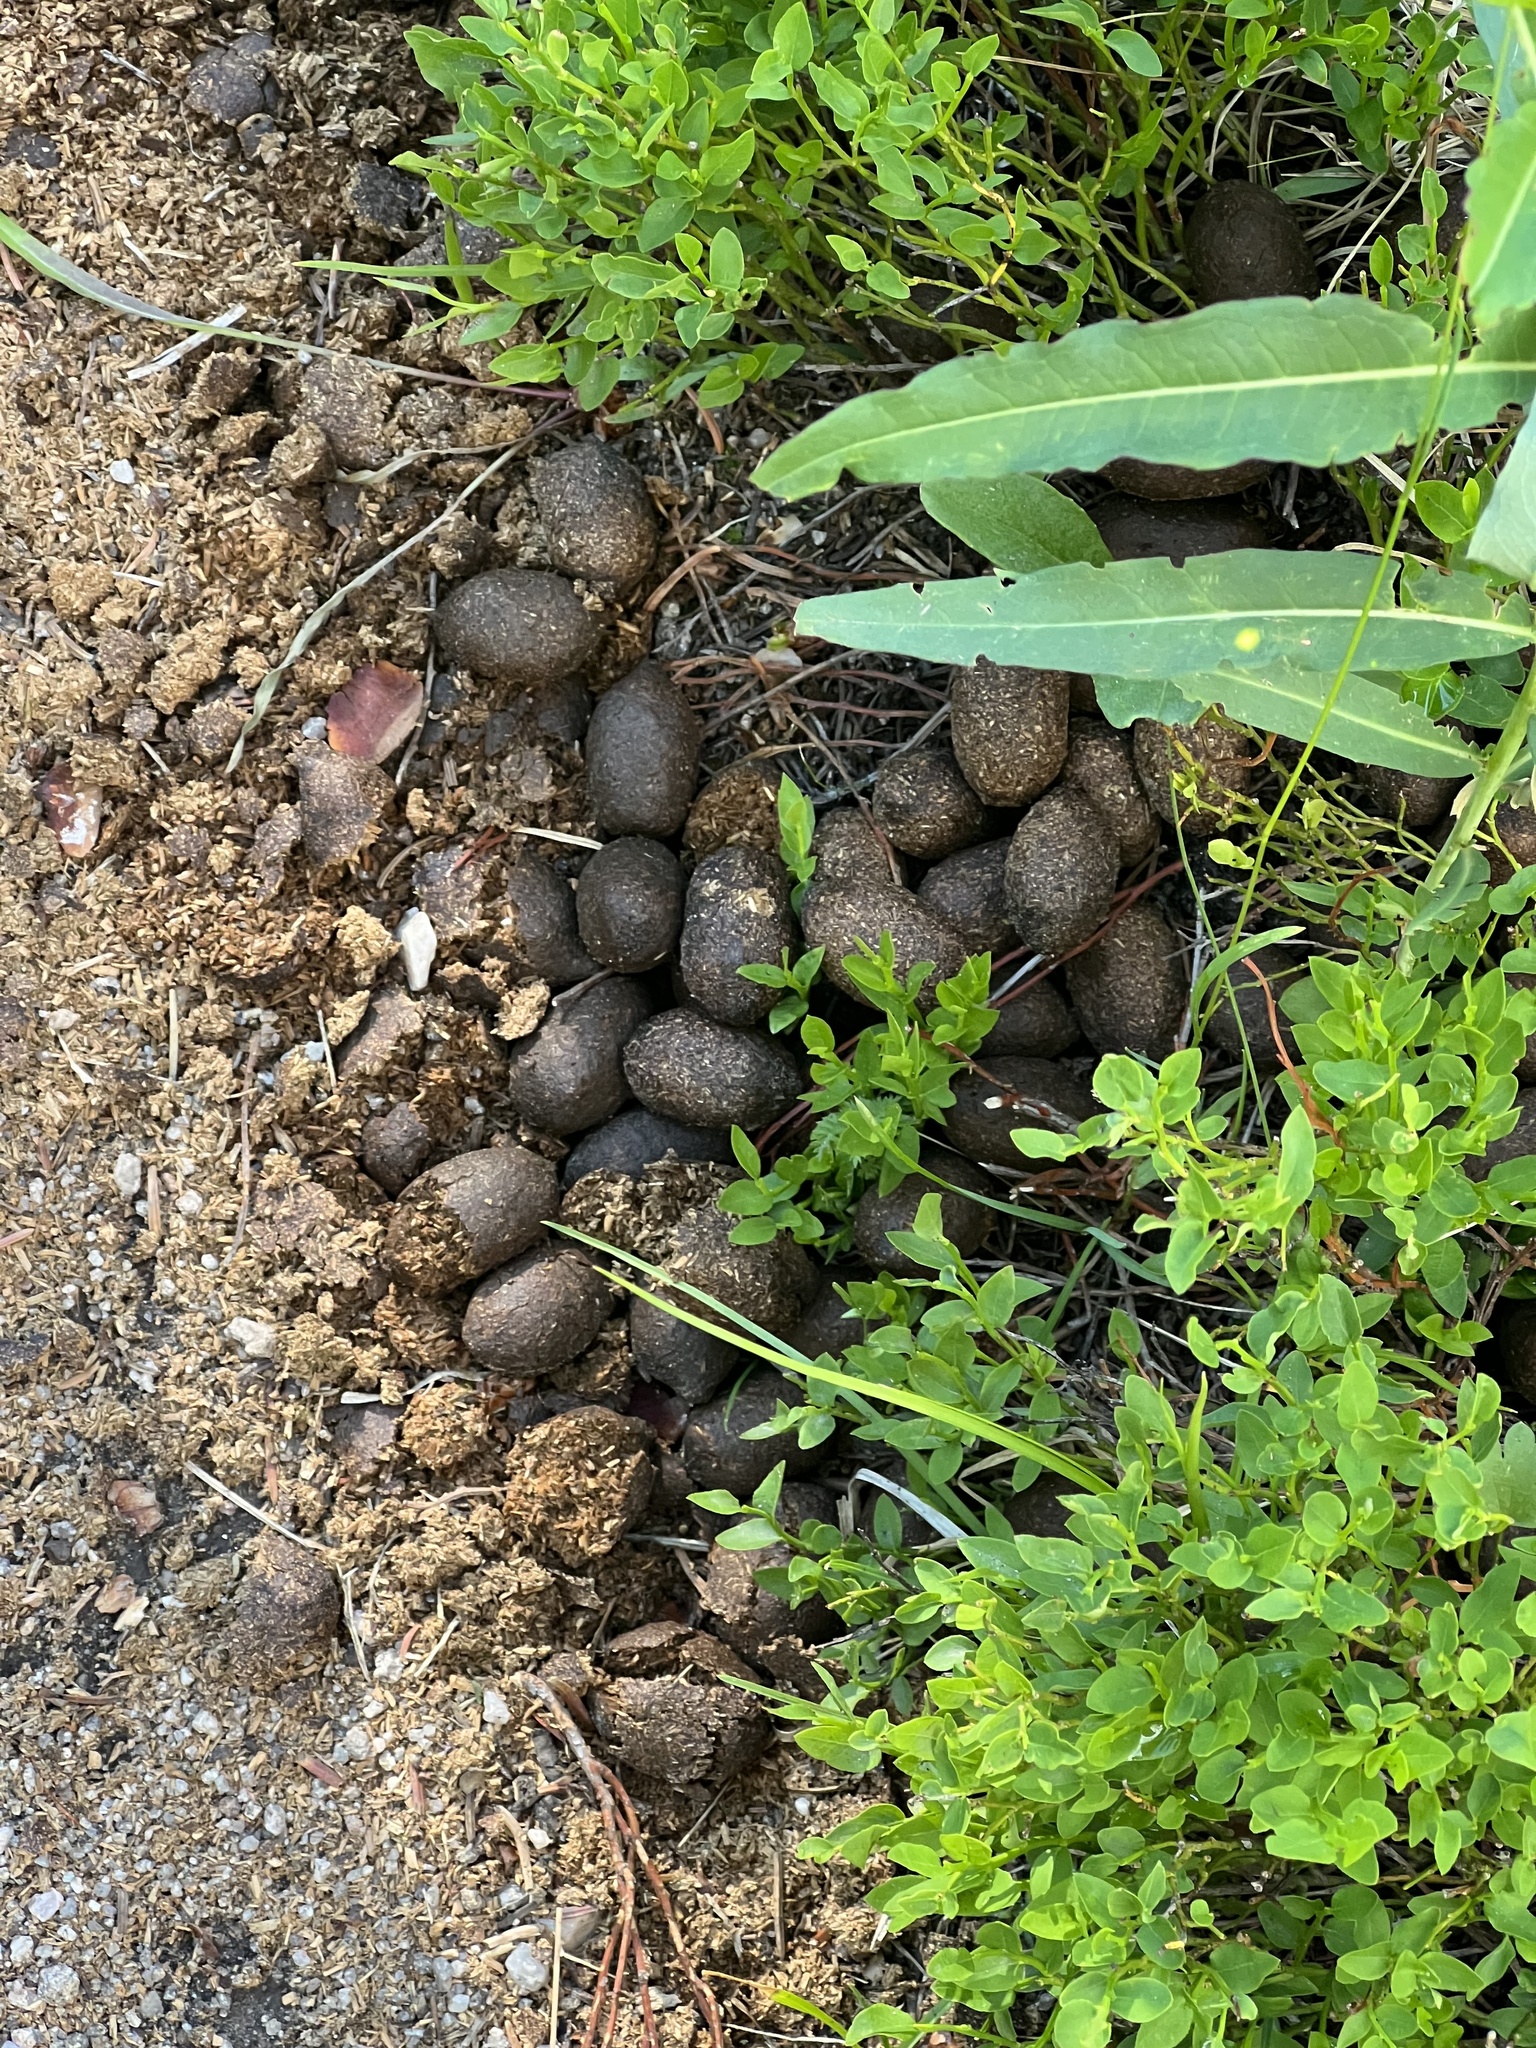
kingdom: Animalia
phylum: Chordata
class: Mammalia
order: Artiodactyla
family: Cervidae
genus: Alces
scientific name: Alces alces
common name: Moose
